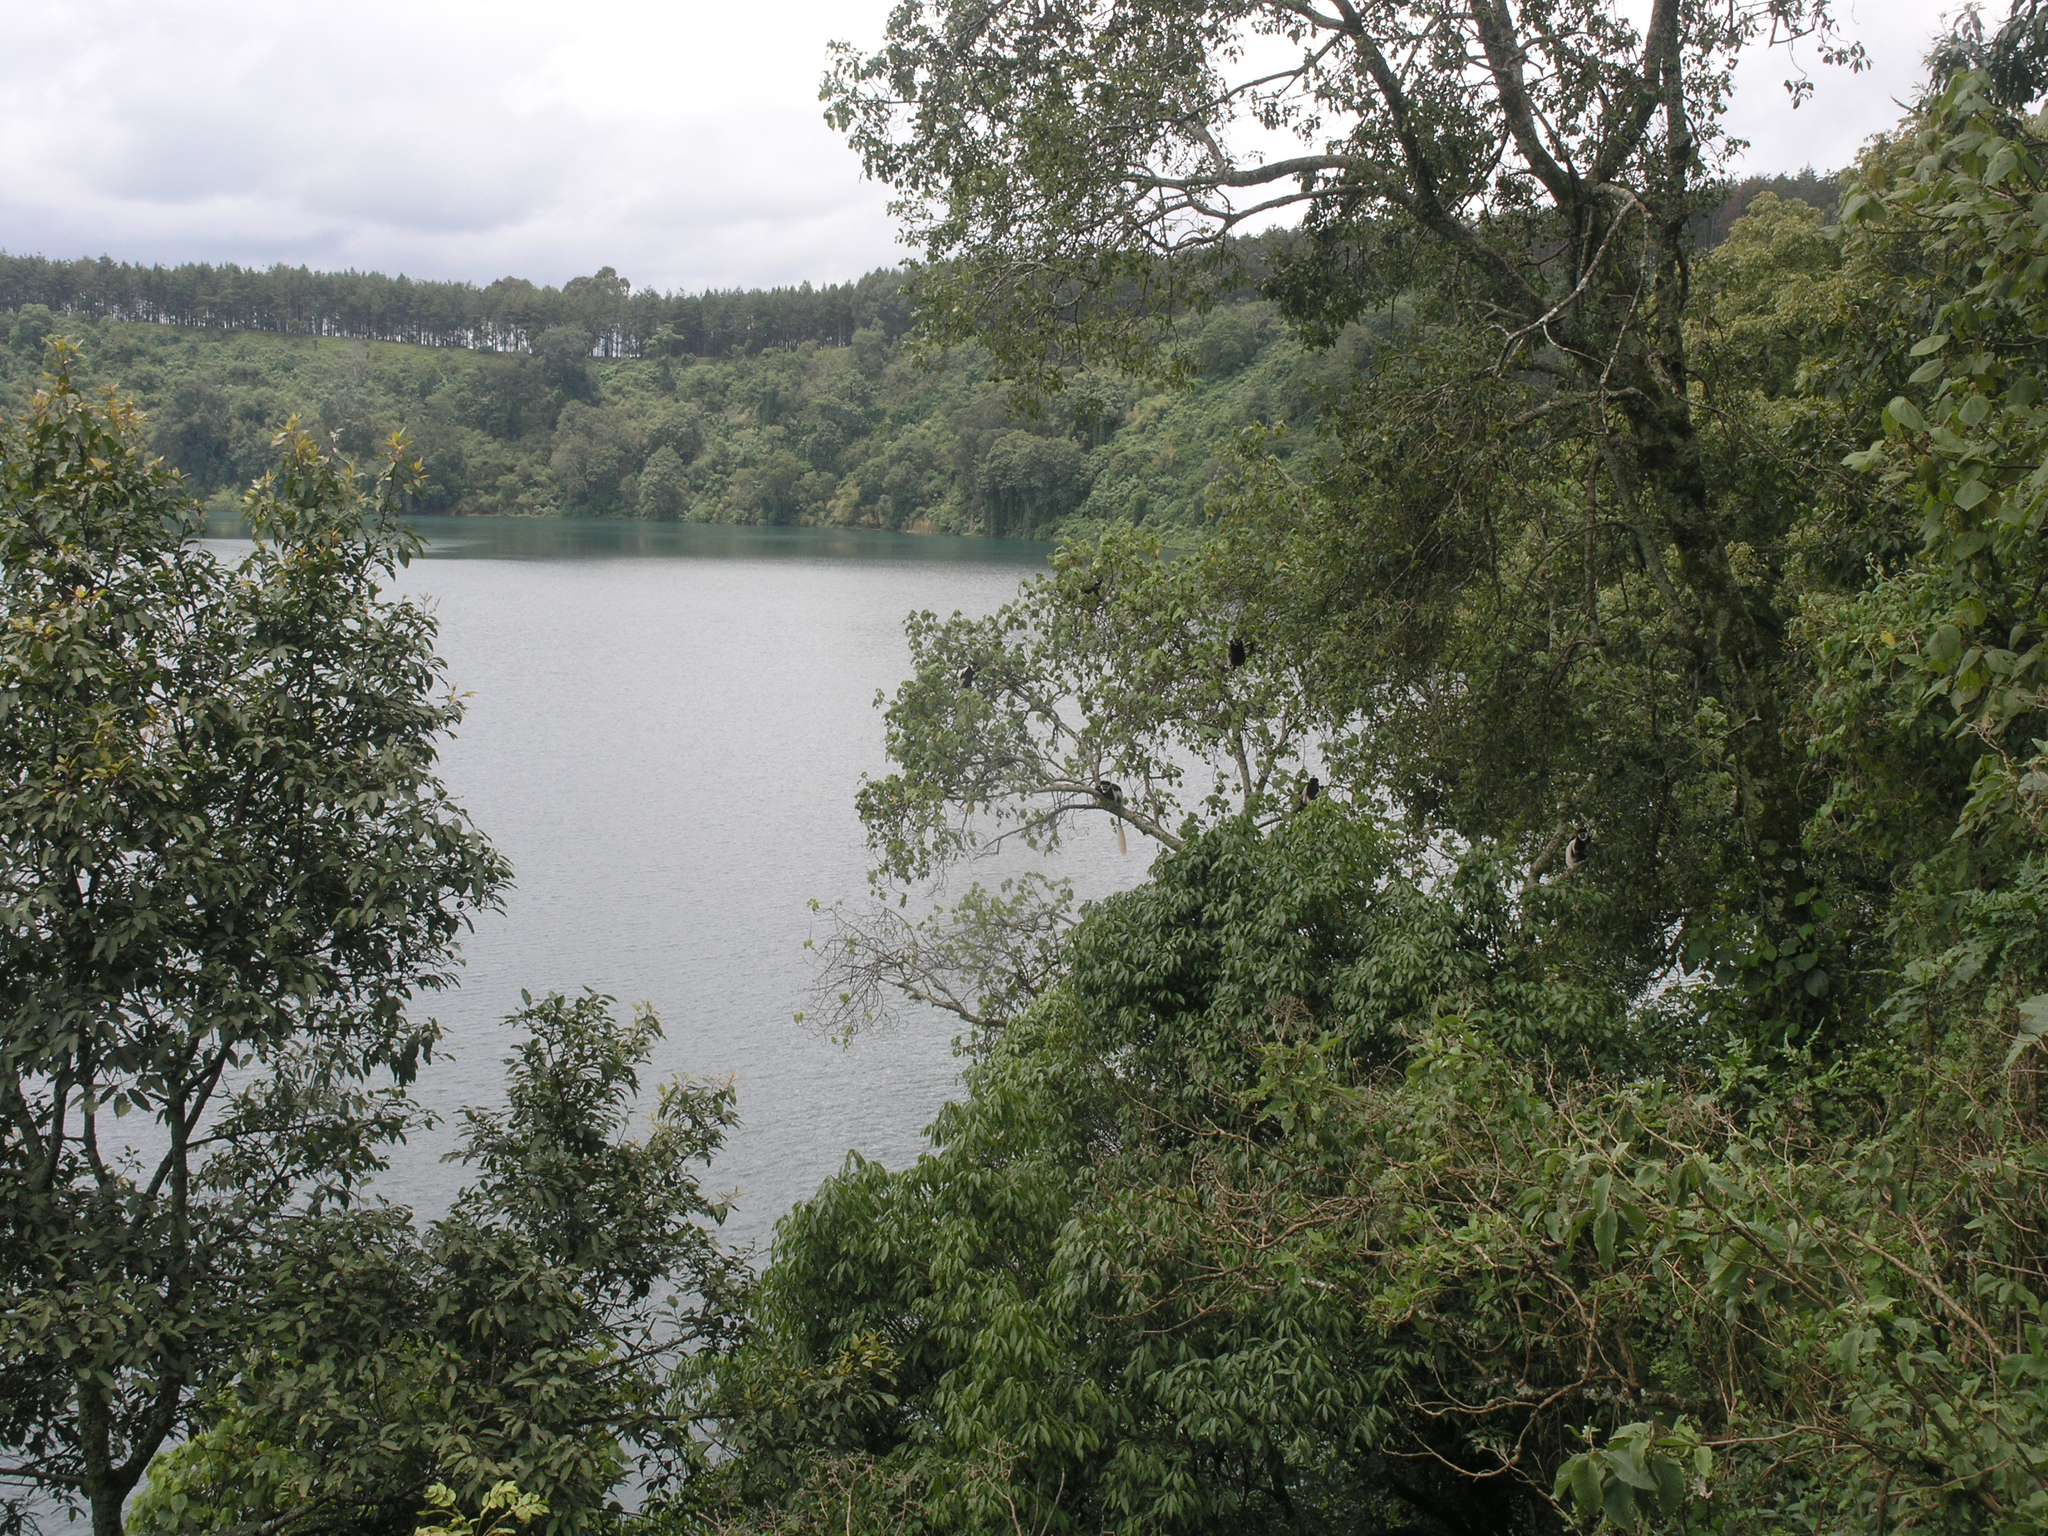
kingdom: Animalia
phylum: Chordata
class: Mammalia
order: Primates
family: Cercopithecidae
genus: Colobus
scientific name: Colobus guereza
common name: Mantled guereza
